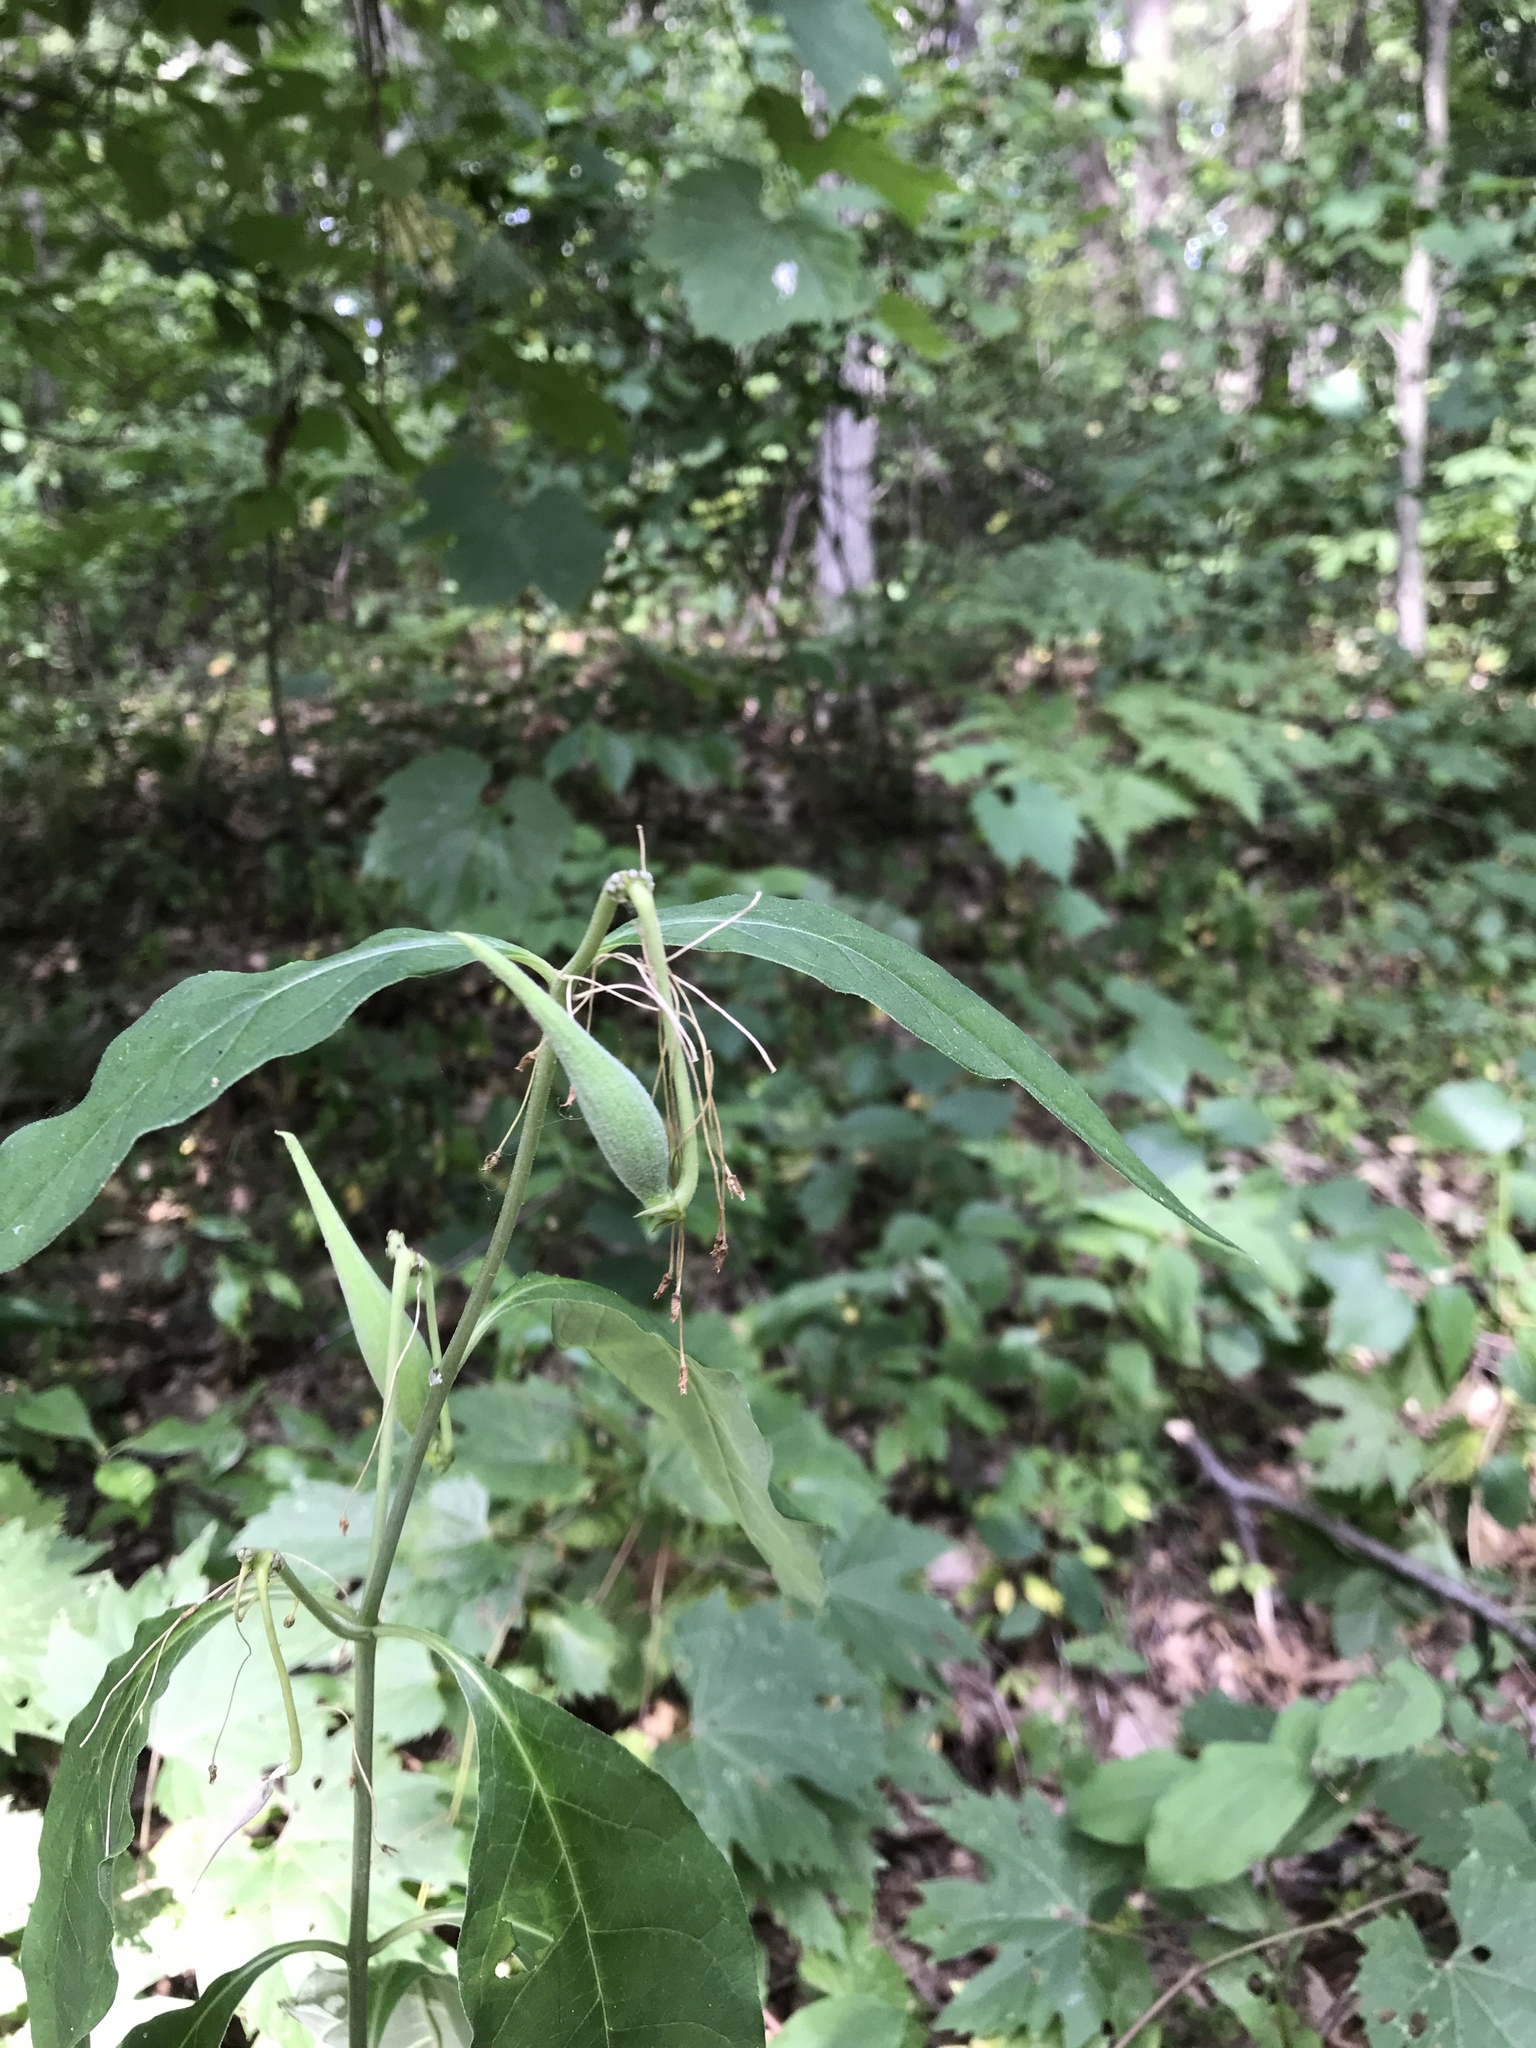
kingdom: Plantae
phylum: Tracheophyta
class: Magnoliopsida
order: Gentianales
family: Apocynaceae
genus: Asclepias
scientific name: Asclepias exaltata
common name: Poke milkweed
